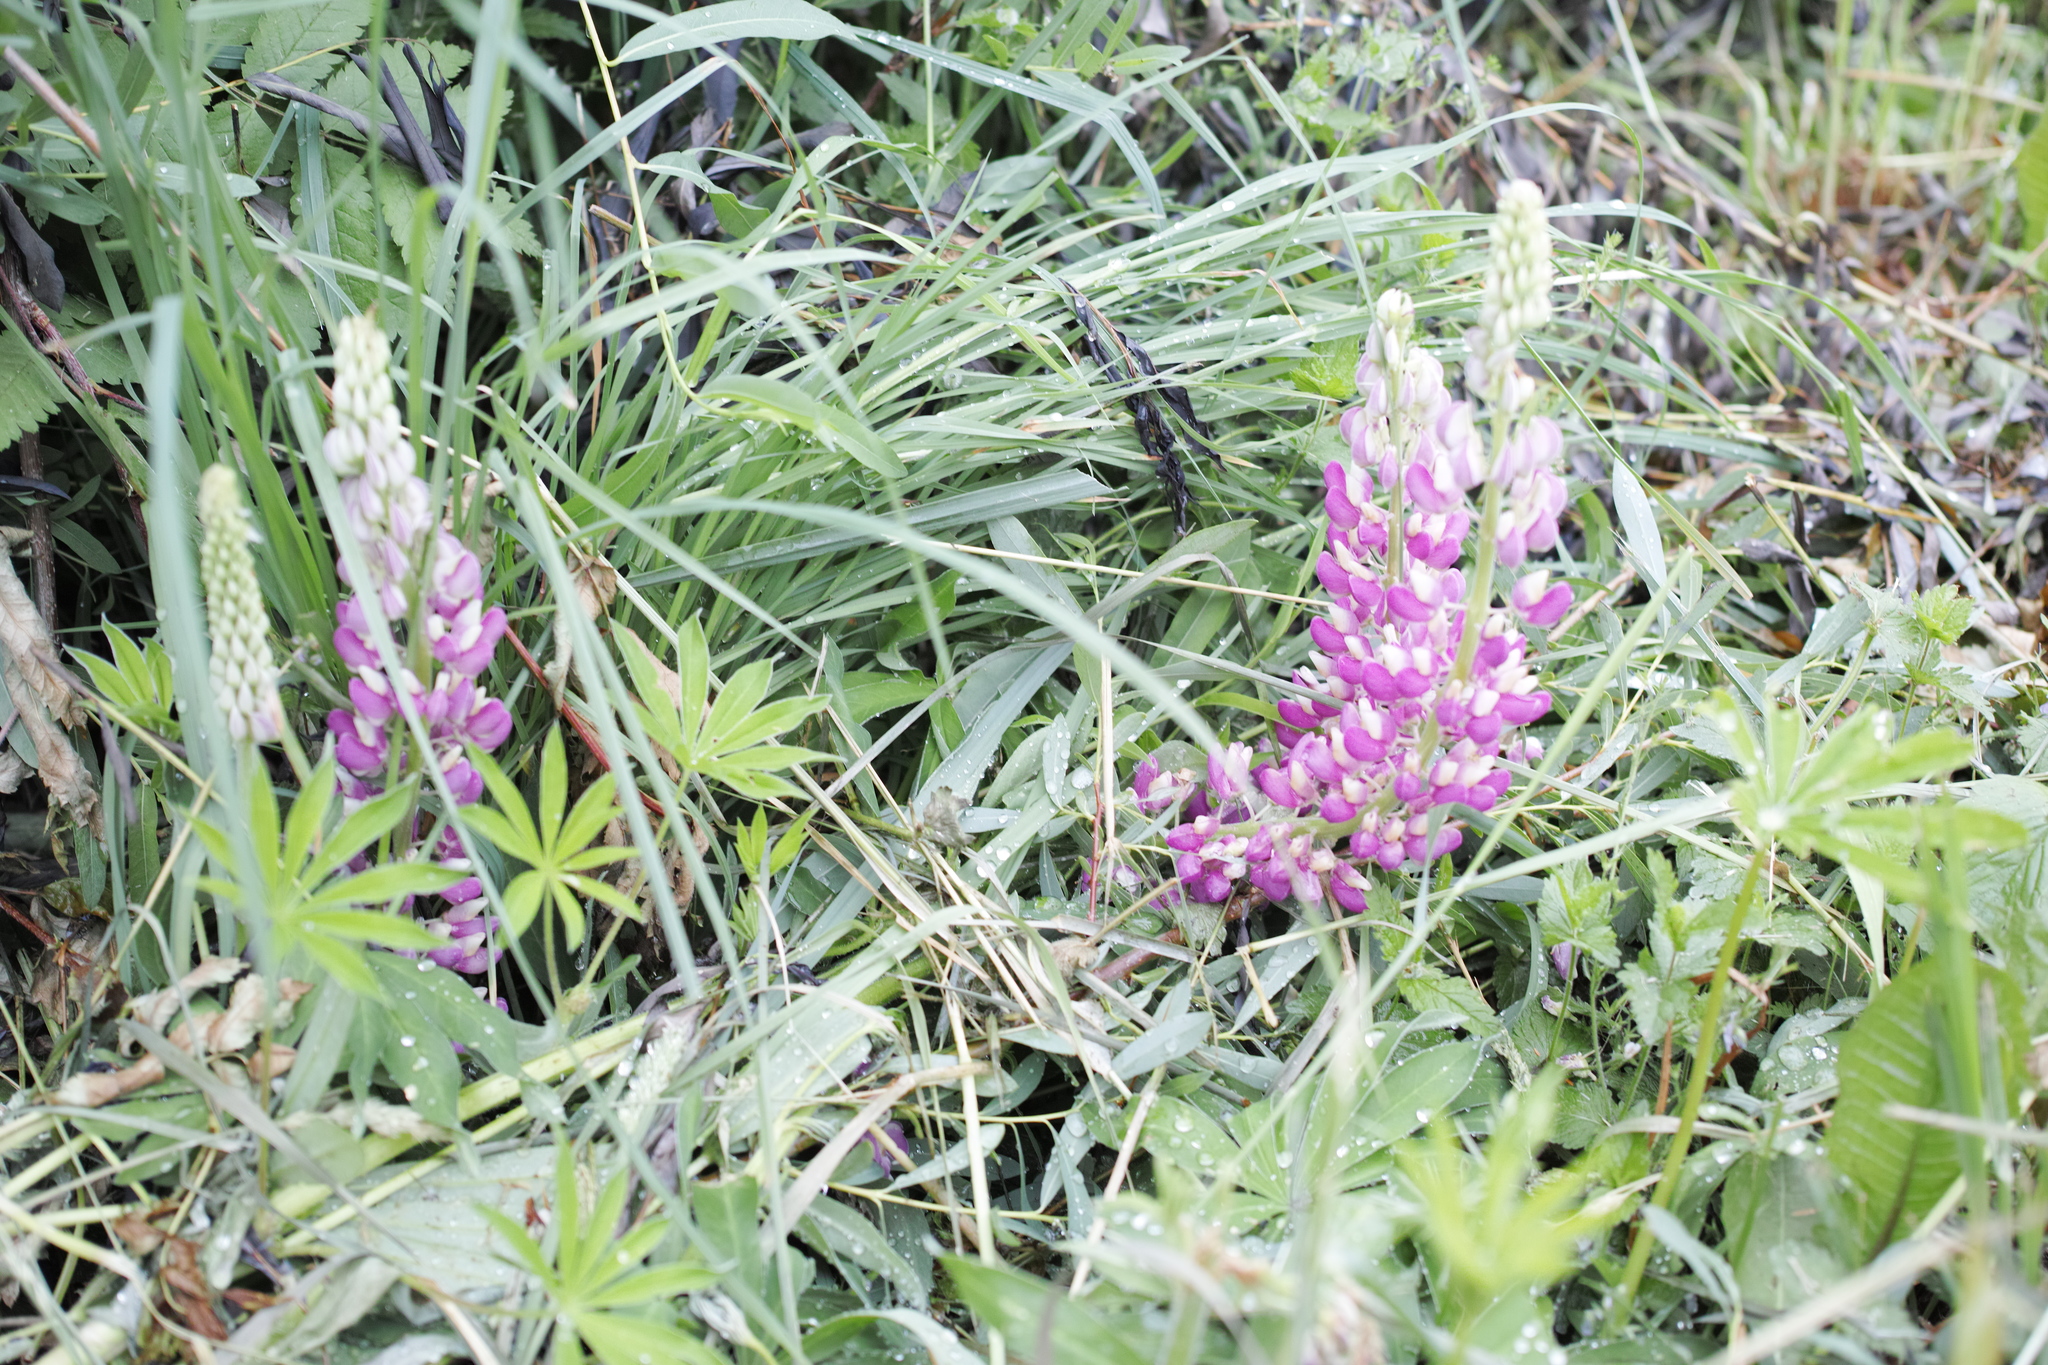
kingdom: Plantae
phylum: Tracheophyta
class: Magnoliopsida
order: Fabales
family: Fabaceae
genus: Lupinus
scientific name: Lupinus polyphyllus
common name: Garden lupin
